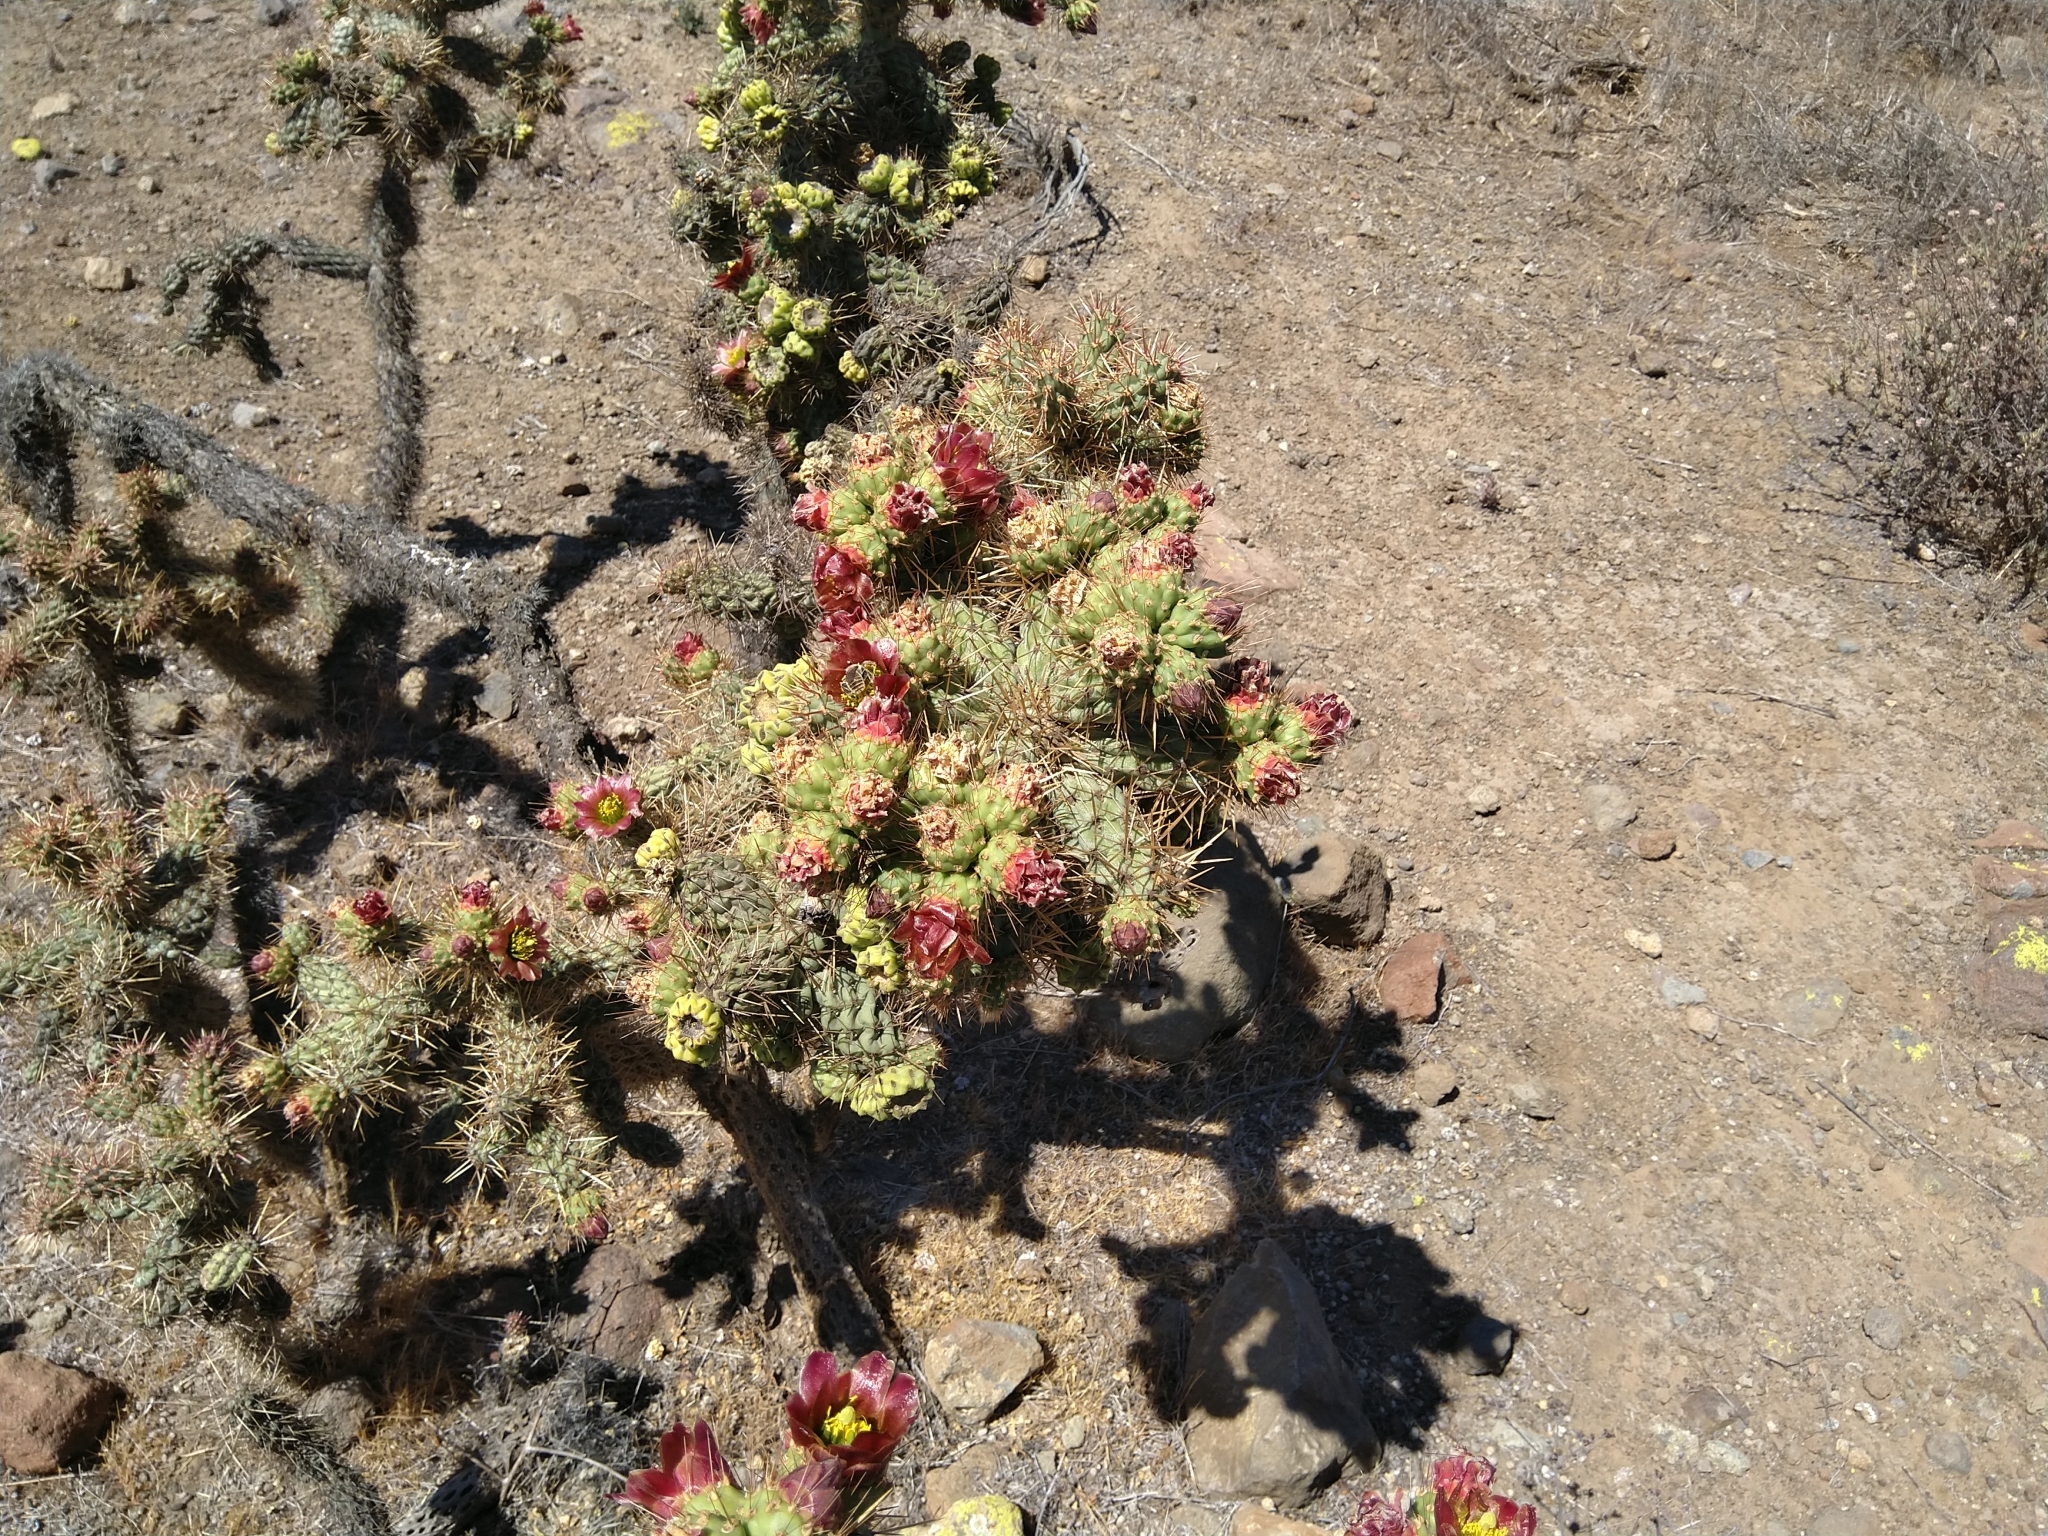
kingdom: Plantae
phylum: Tracheophyta
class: Magnoliopsida
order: Caryophyllales
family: Cactaceae
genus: Cylindropuntia
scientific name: Cylindropuntia prolifera
